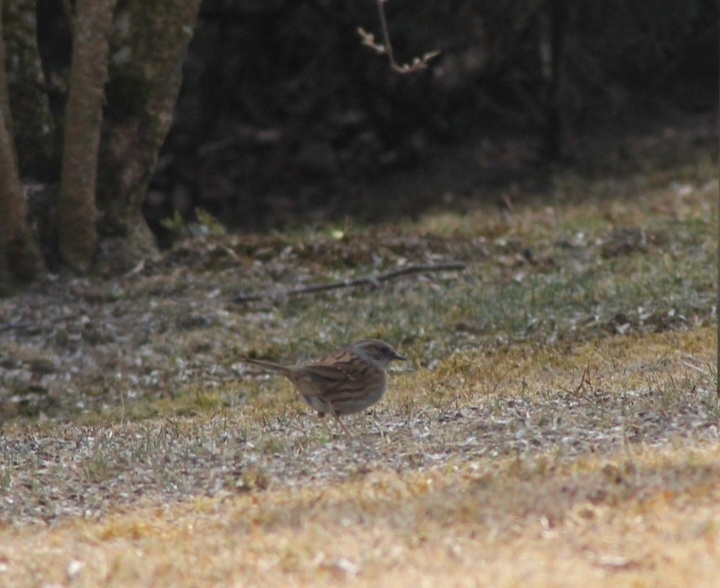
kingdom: Animalia
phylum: Chordata
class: Aves
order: Passeriformes
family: Prunellidae
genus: Prunella
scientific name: Prunella modularis
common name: Dunnock
